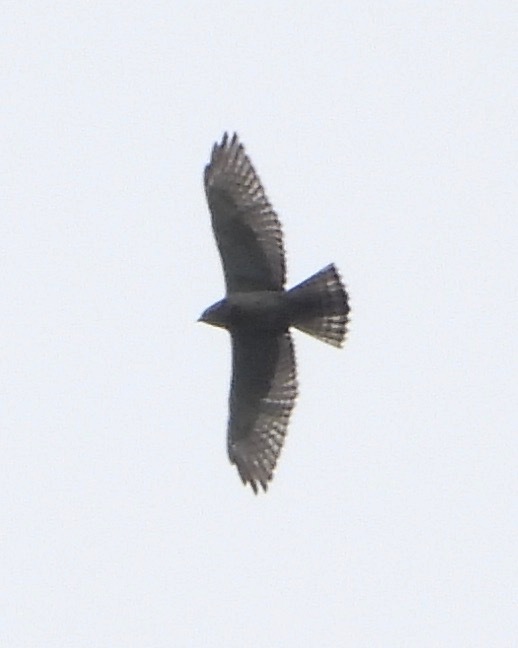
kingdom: Animalia
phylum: Chordata
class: Aves
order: Accipitriformes
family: Accipitridae
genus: Buteo
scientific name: Buteo platypterus
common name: Broad-winged hawk
